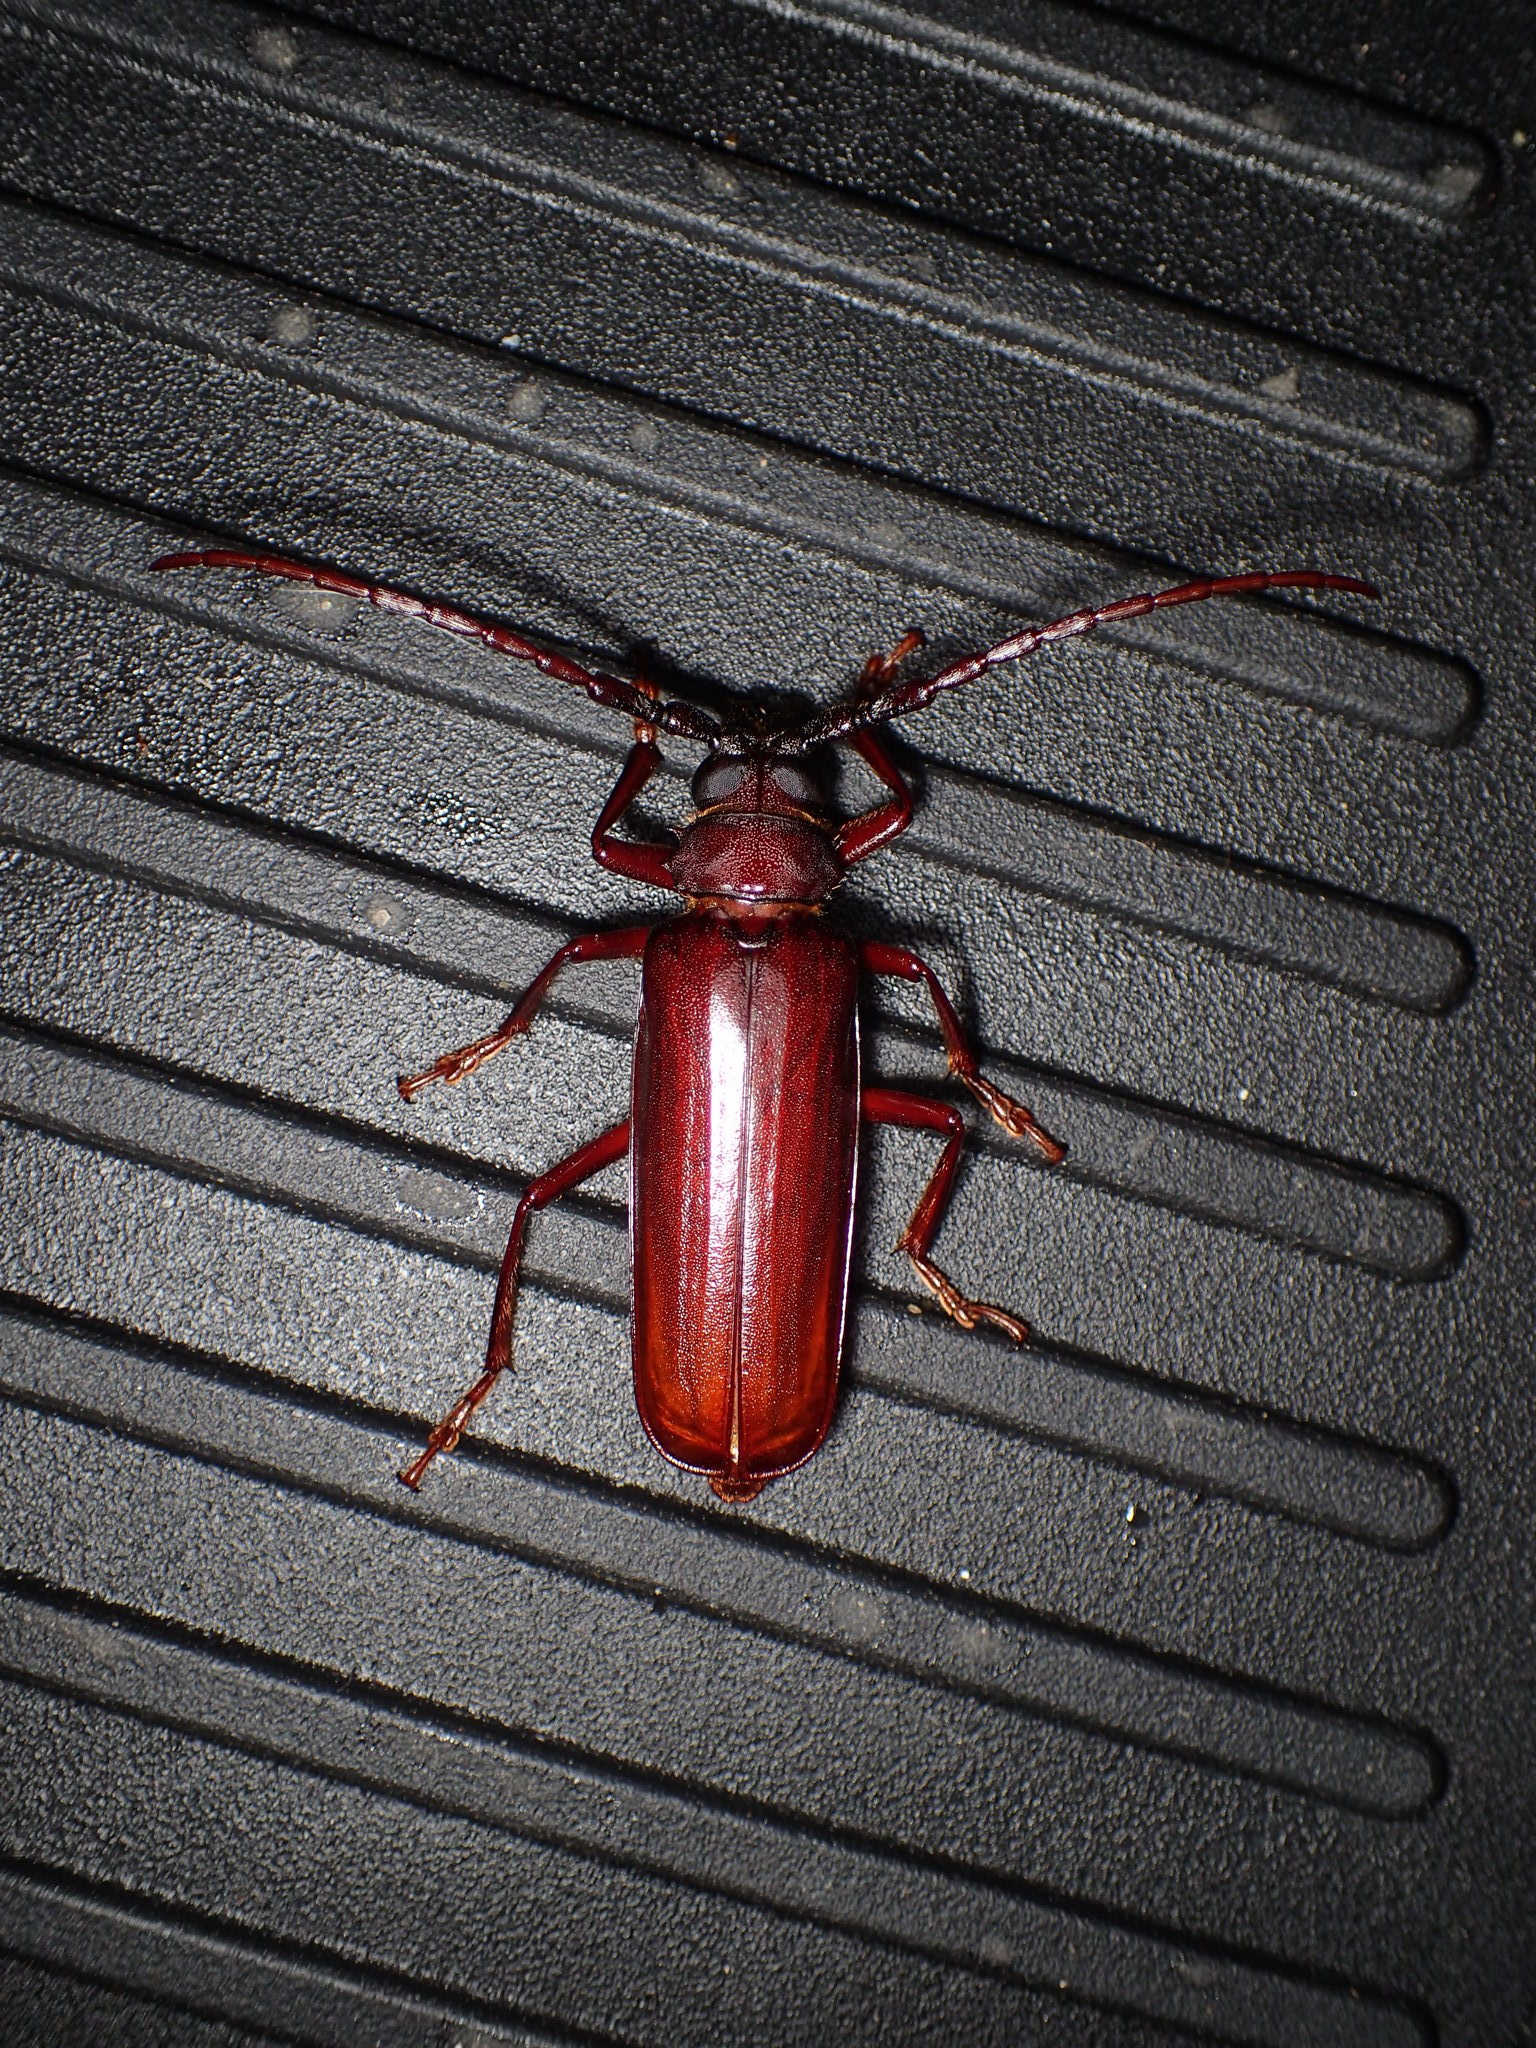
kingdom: Animalia
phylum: Arthropoda
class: Insecta
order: Coleoptera
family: Cerambycidae
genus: Orthosoma
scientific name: Orthosoma brunneum
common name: Brown prionid beetle
